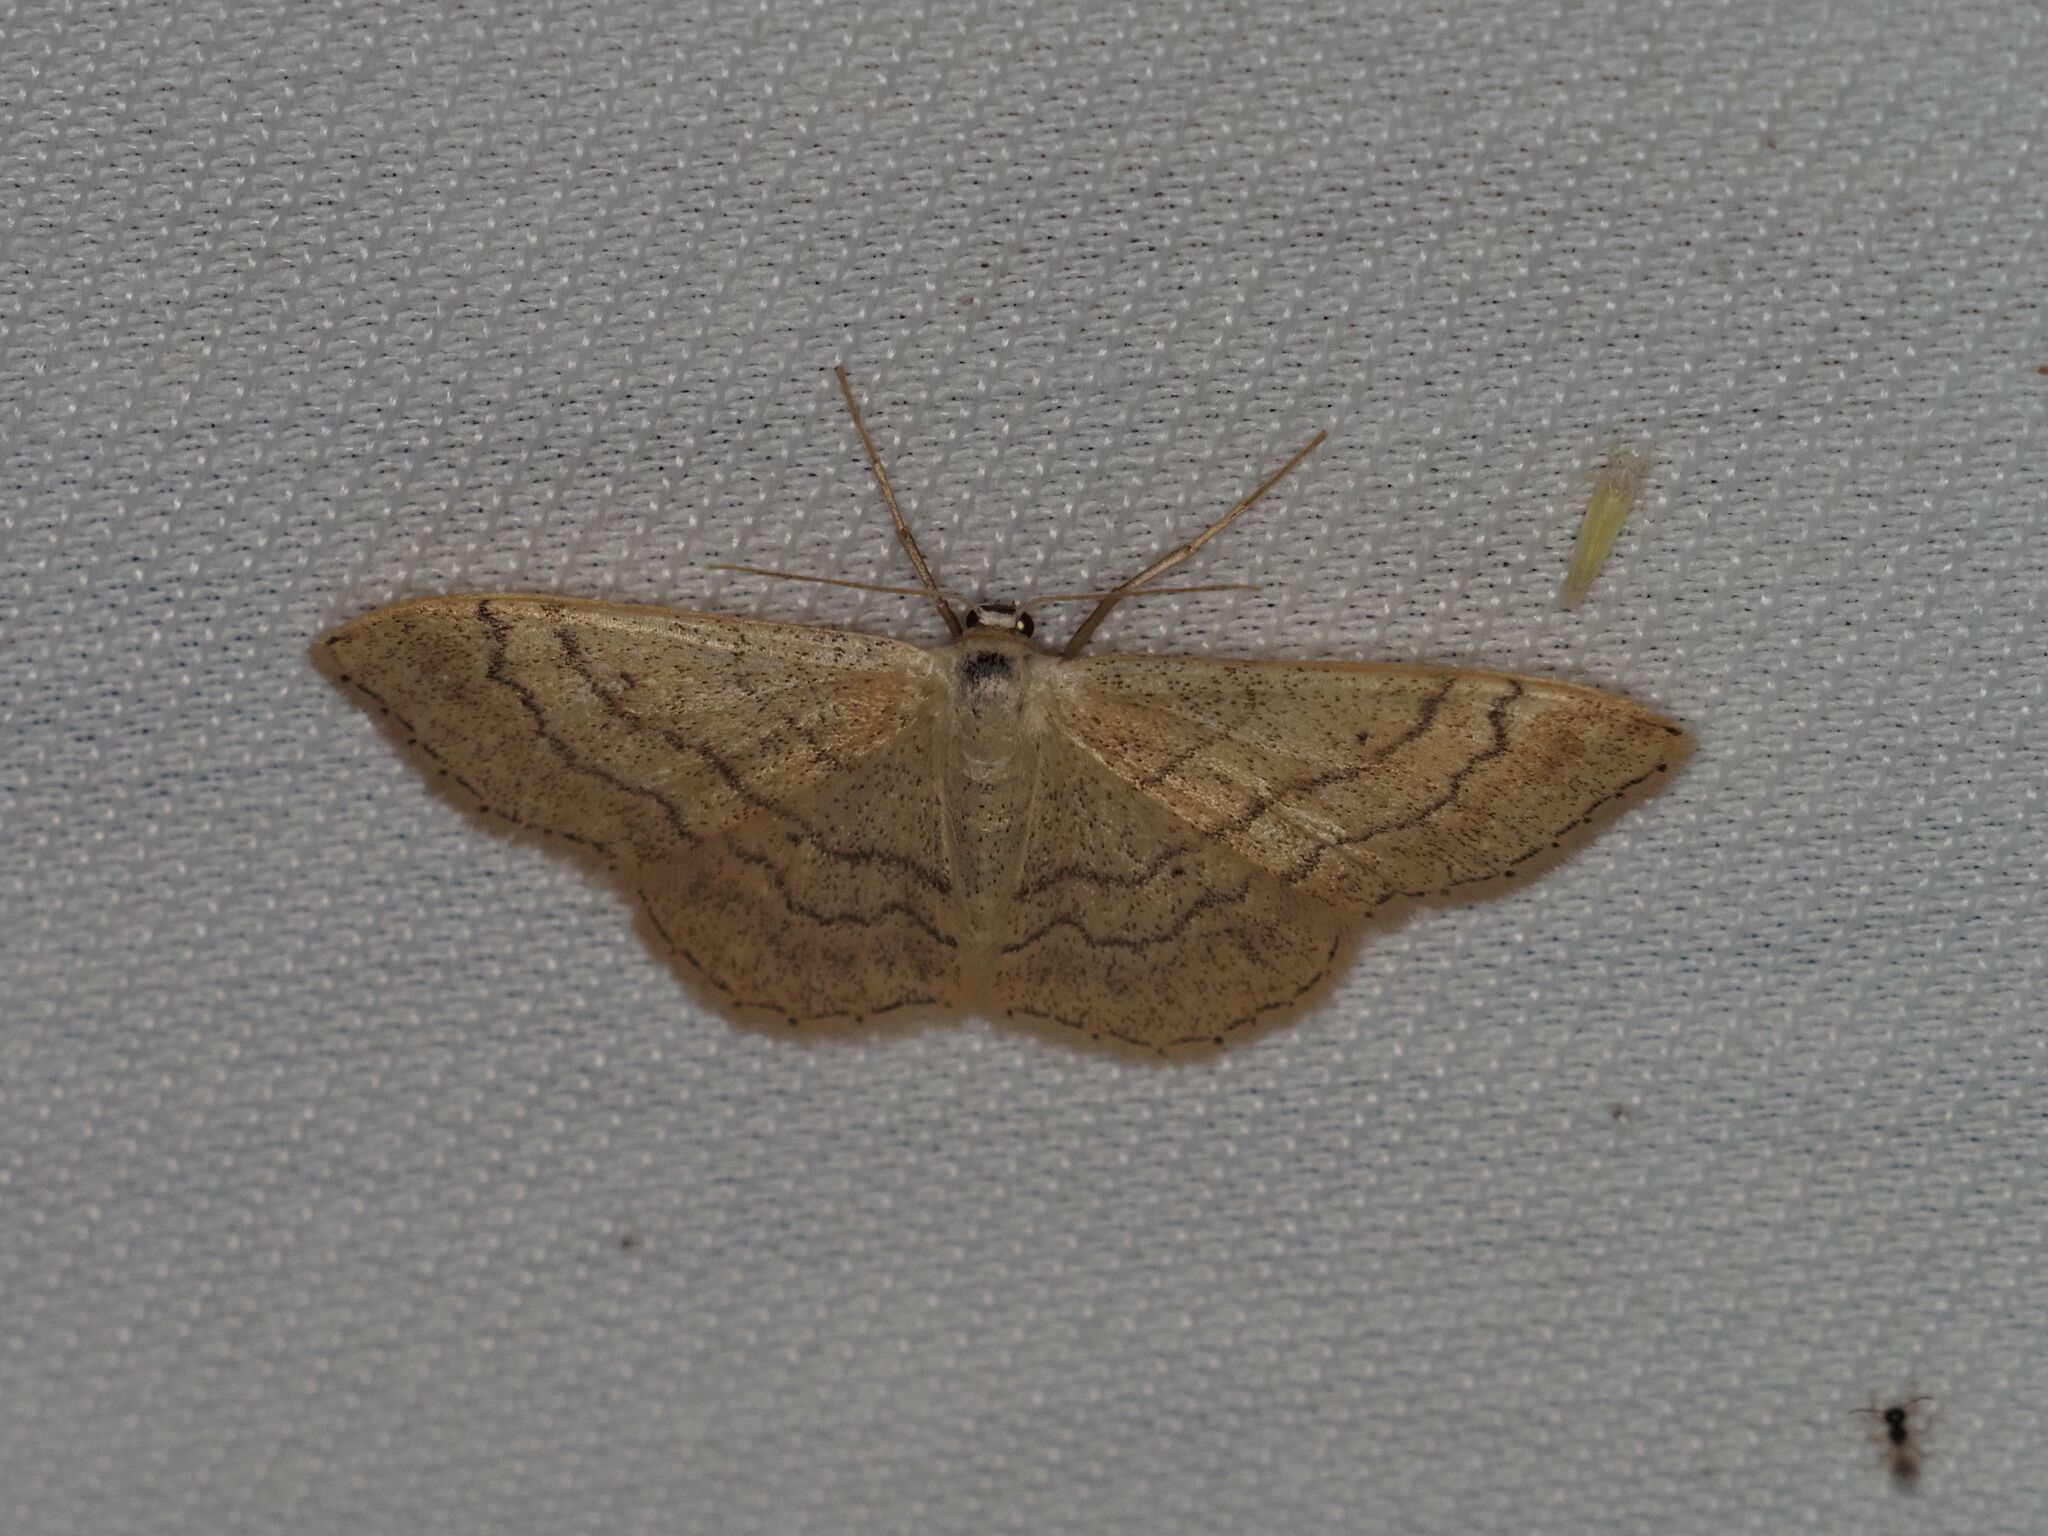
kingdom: Animalia
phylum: Arthropoda
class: Insecta
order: Lepidoptera
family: Geometridae
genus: Idaea
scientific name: Idaea aversata
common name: Riband wave
